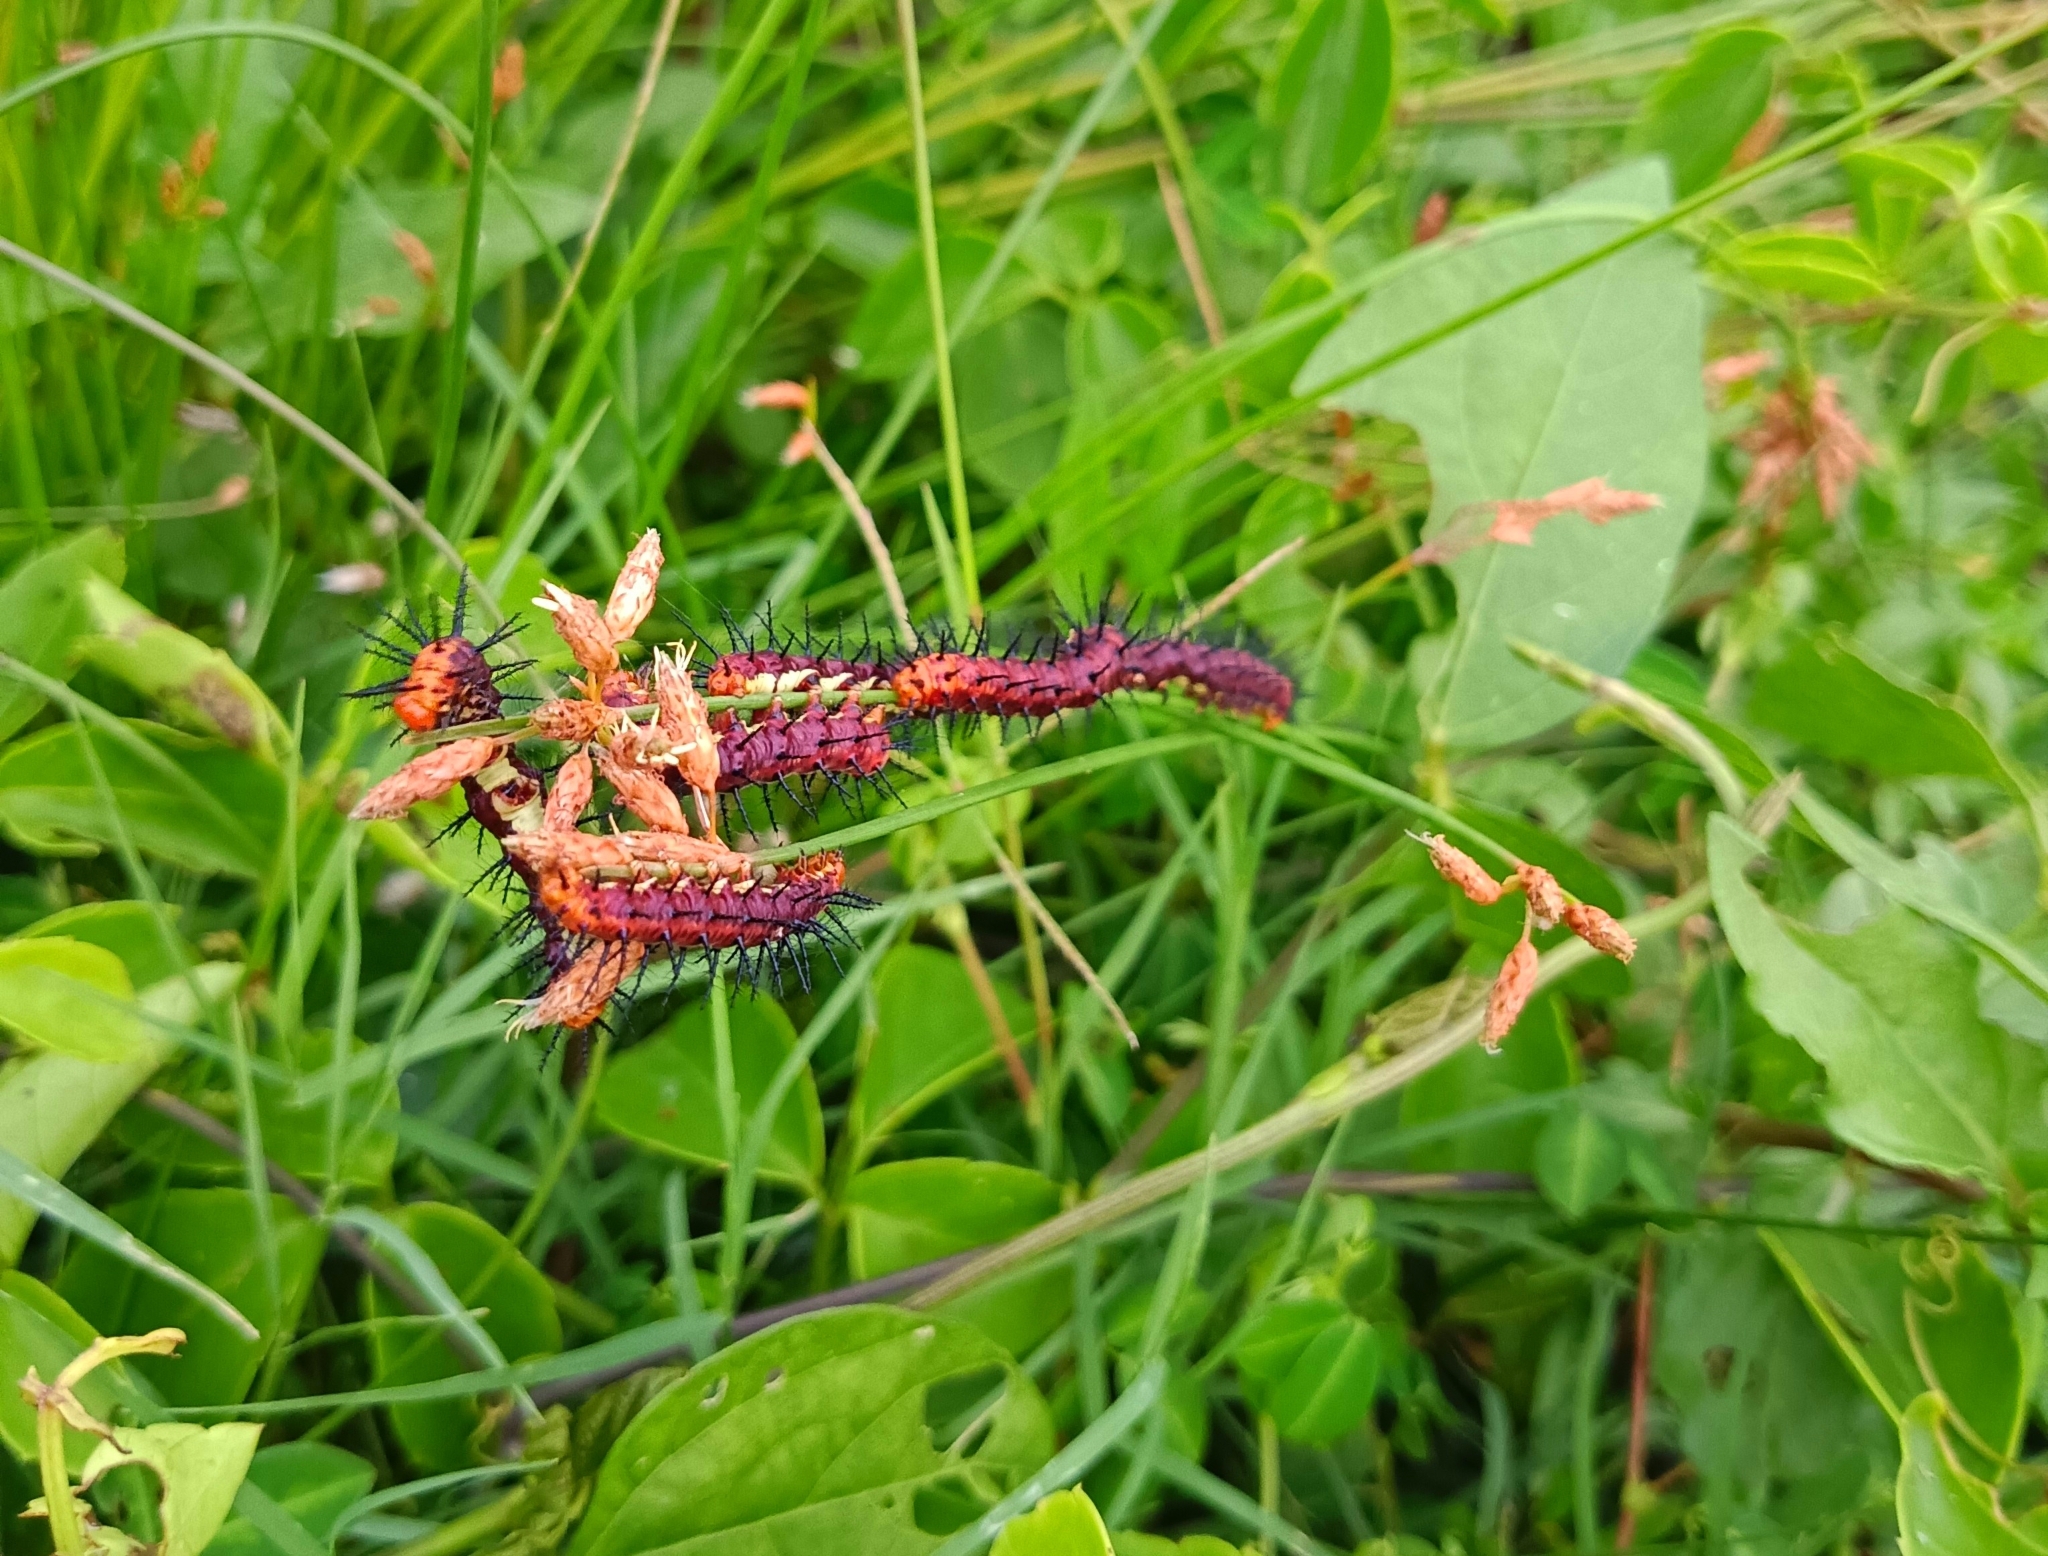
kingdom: Animalia
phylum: Arthropoda
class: Insecta
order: Lepidoptera
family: Nymphalidae
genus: Acraea
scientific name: Acraea terpsicore
